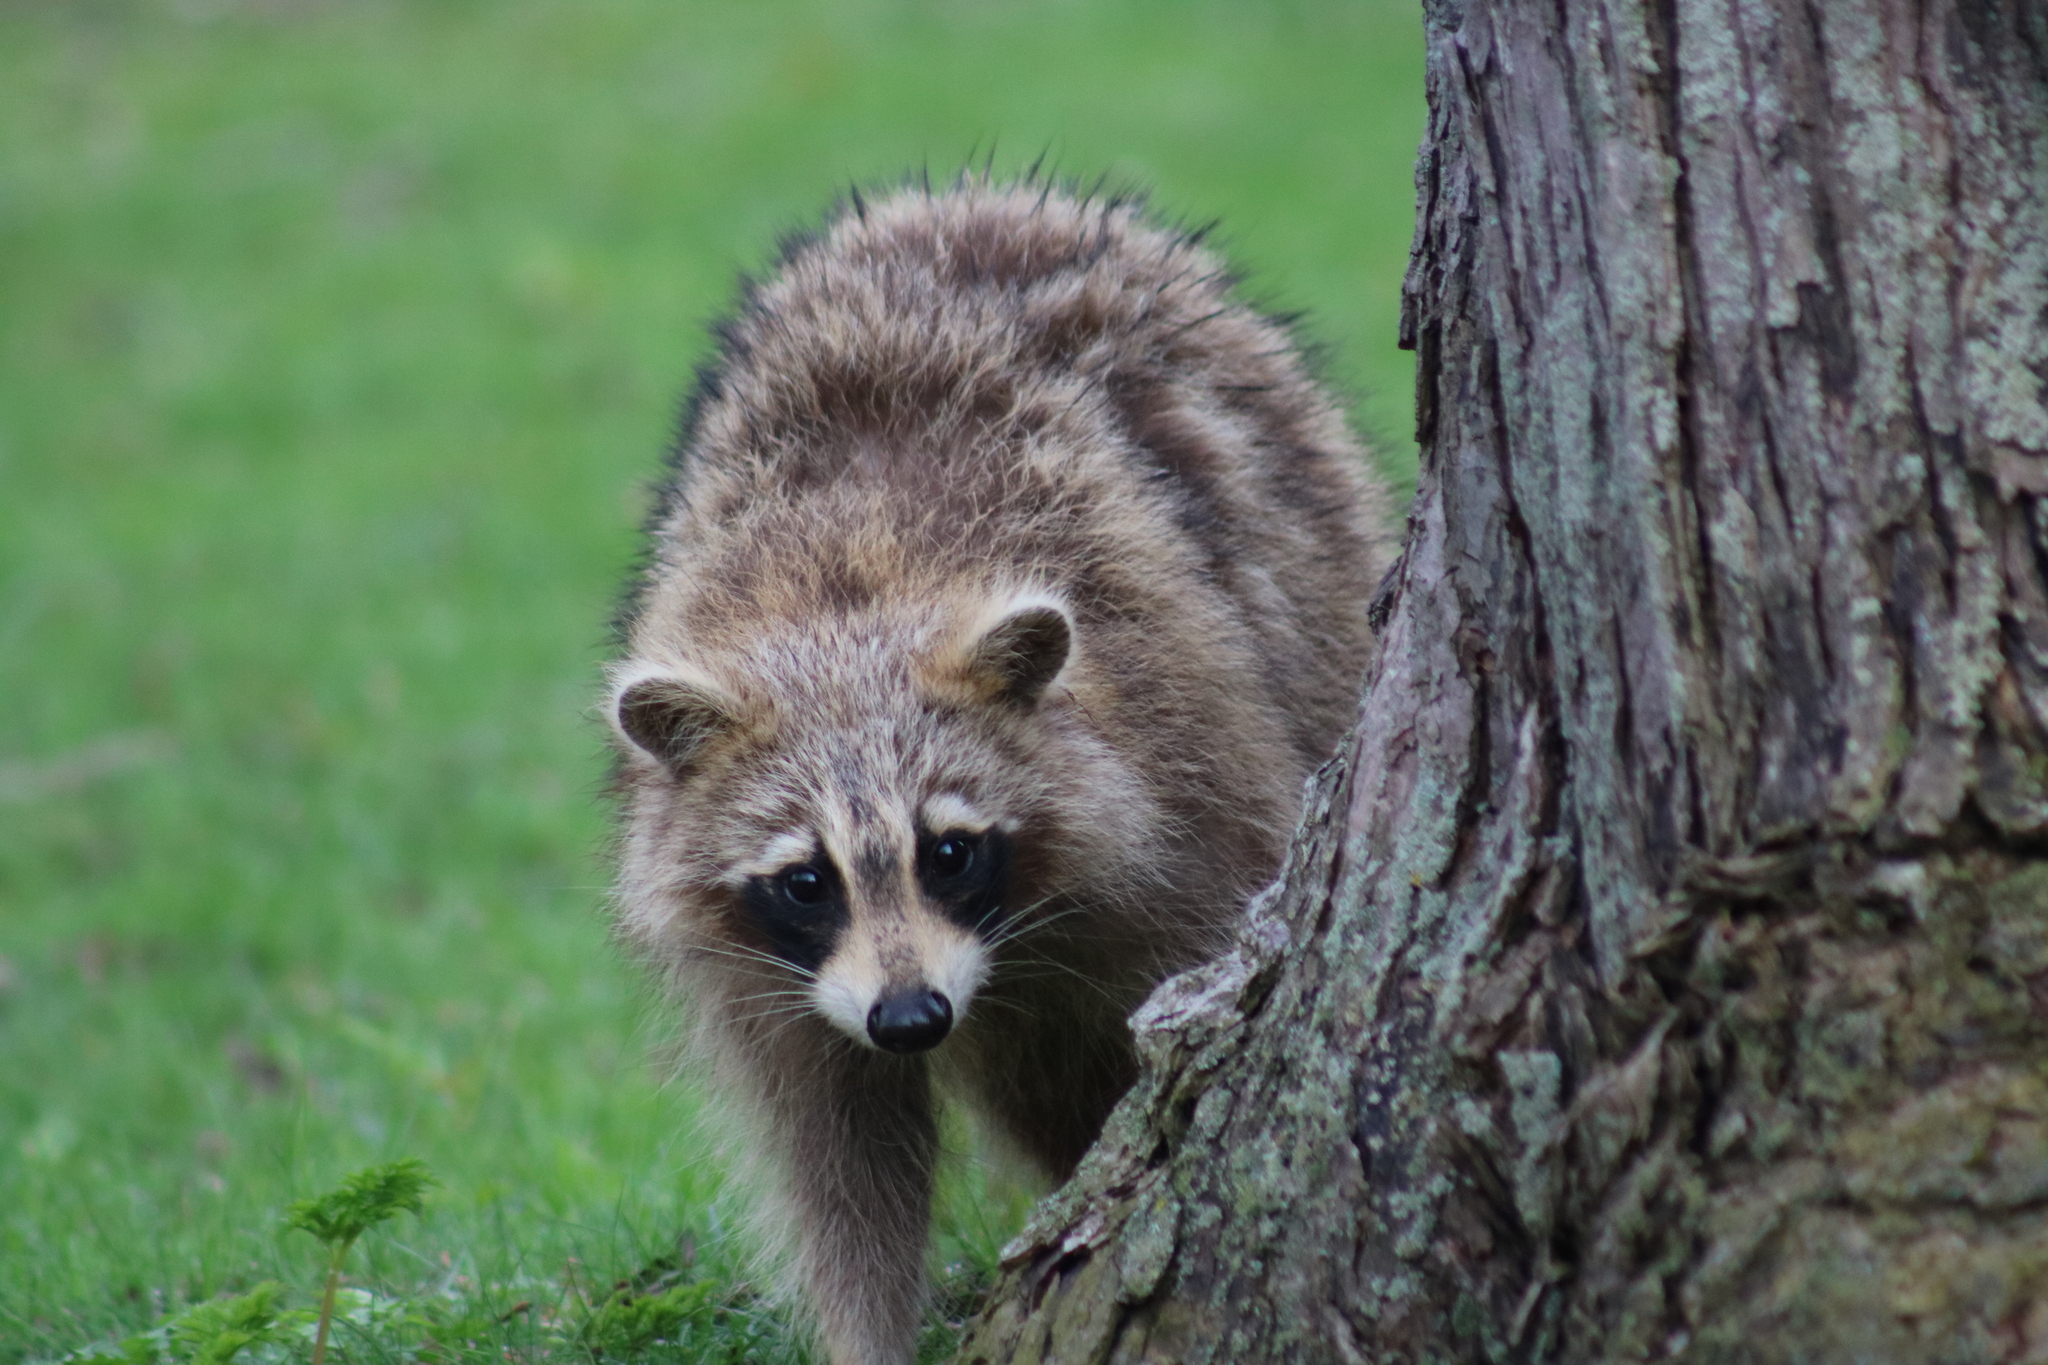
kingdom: Animalia
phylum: Chordata
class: Mammalia
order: Carnivora
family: Procyonidae
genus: Procyon
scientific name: Procyon lotor
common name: Raccoon
